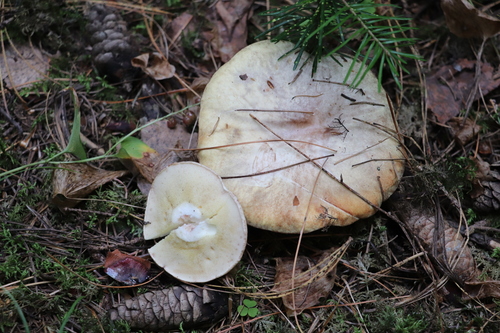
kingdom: Fungi
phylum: Basidiomycota
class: Agaricomycetes
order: Boletales
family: Suillaceae
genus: Suillus
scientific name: Suillus placidus
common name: Slippery white bolete
